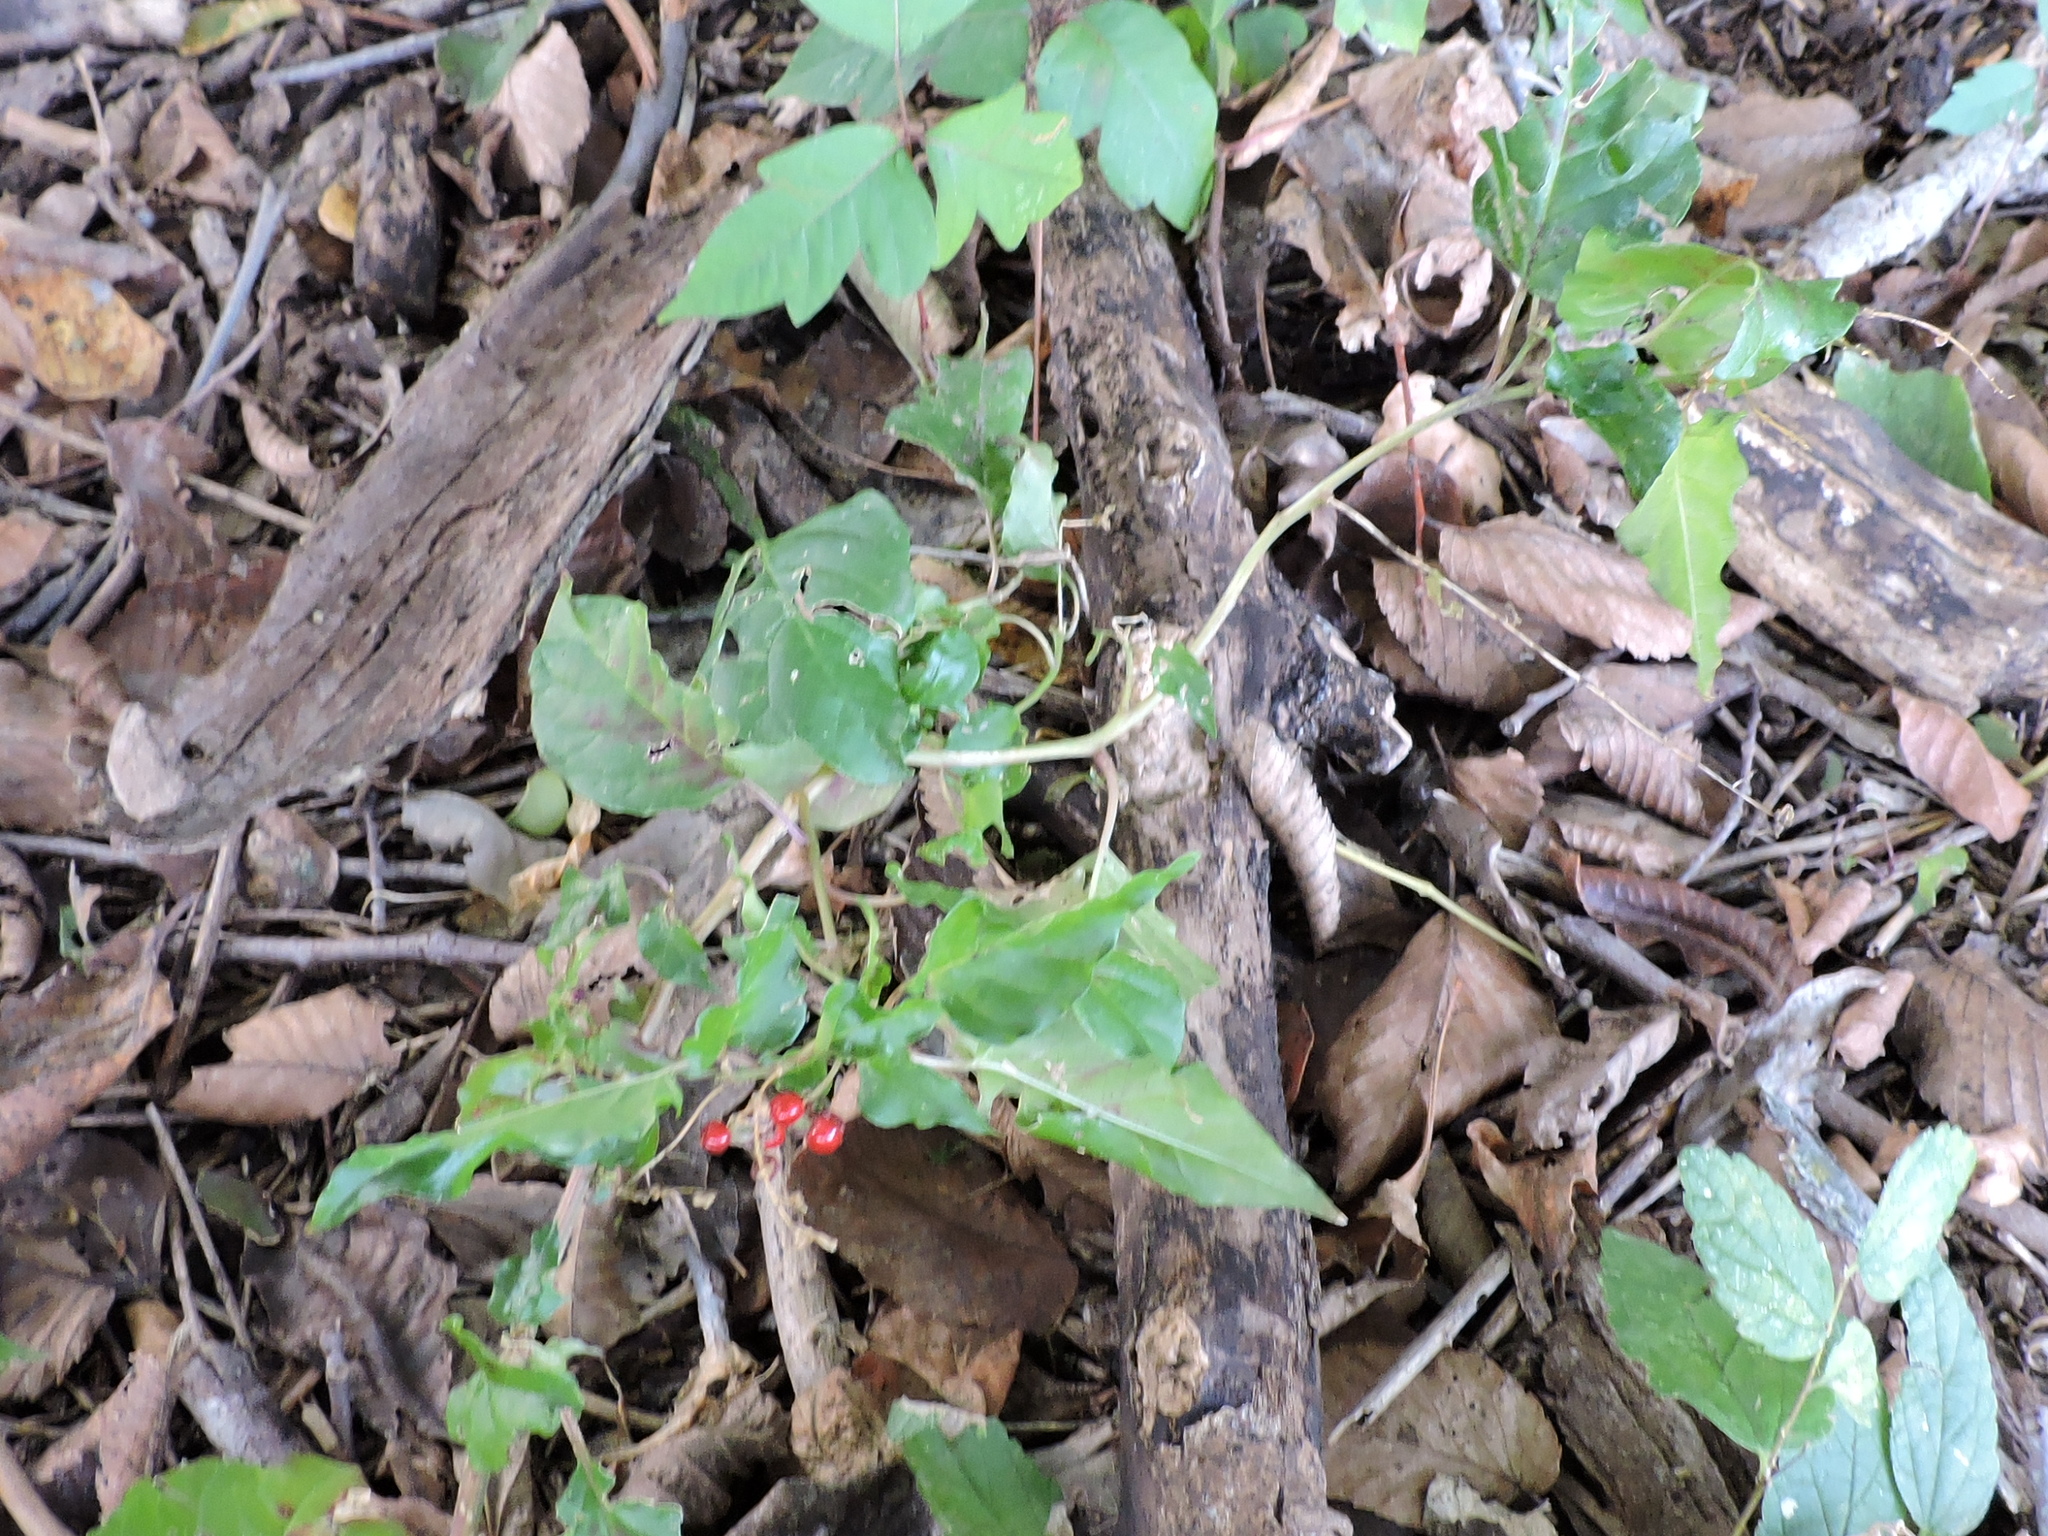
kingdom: Plantae
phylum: Tracheophyta
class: Magnoliopsida
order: Caryophyllales
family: Phytolaccaceae
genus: Rivina
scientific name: Rivina humilis
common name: Rougeplant
